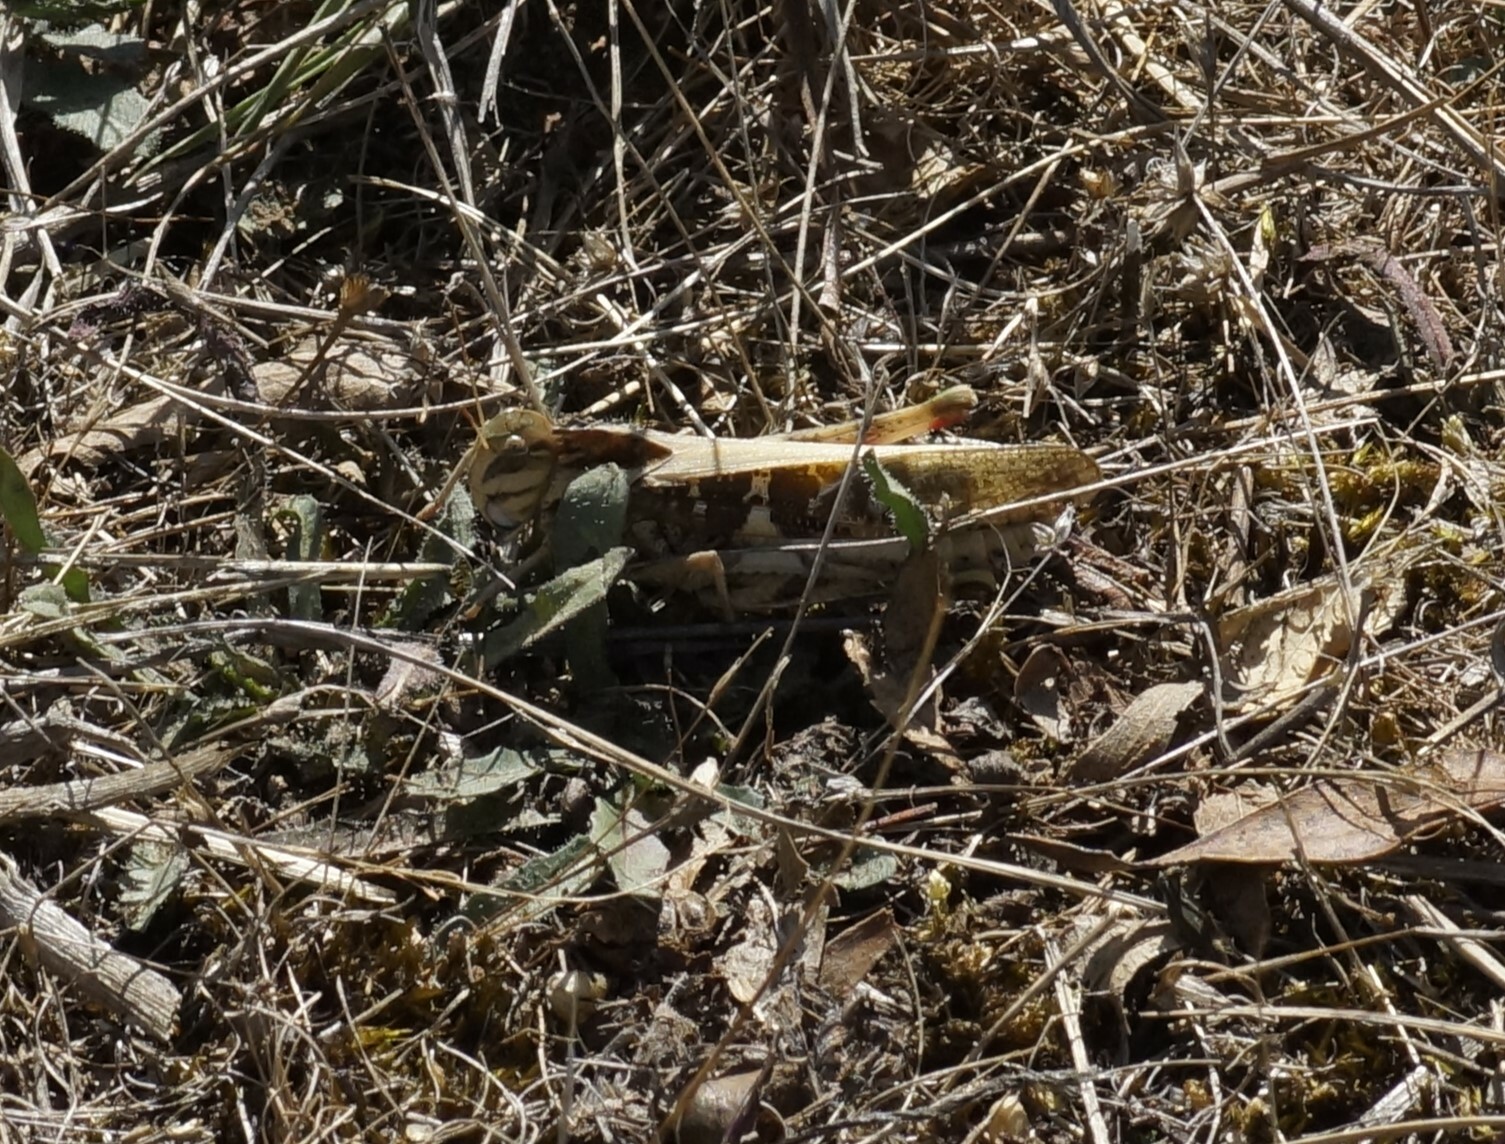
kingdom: Animalia
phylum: Arthropoda
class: Insecta
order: Orthoptera
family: Acrididae
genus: Gastrimargus
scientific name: Gastrimargus musicus
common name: Yellow-winged locust
